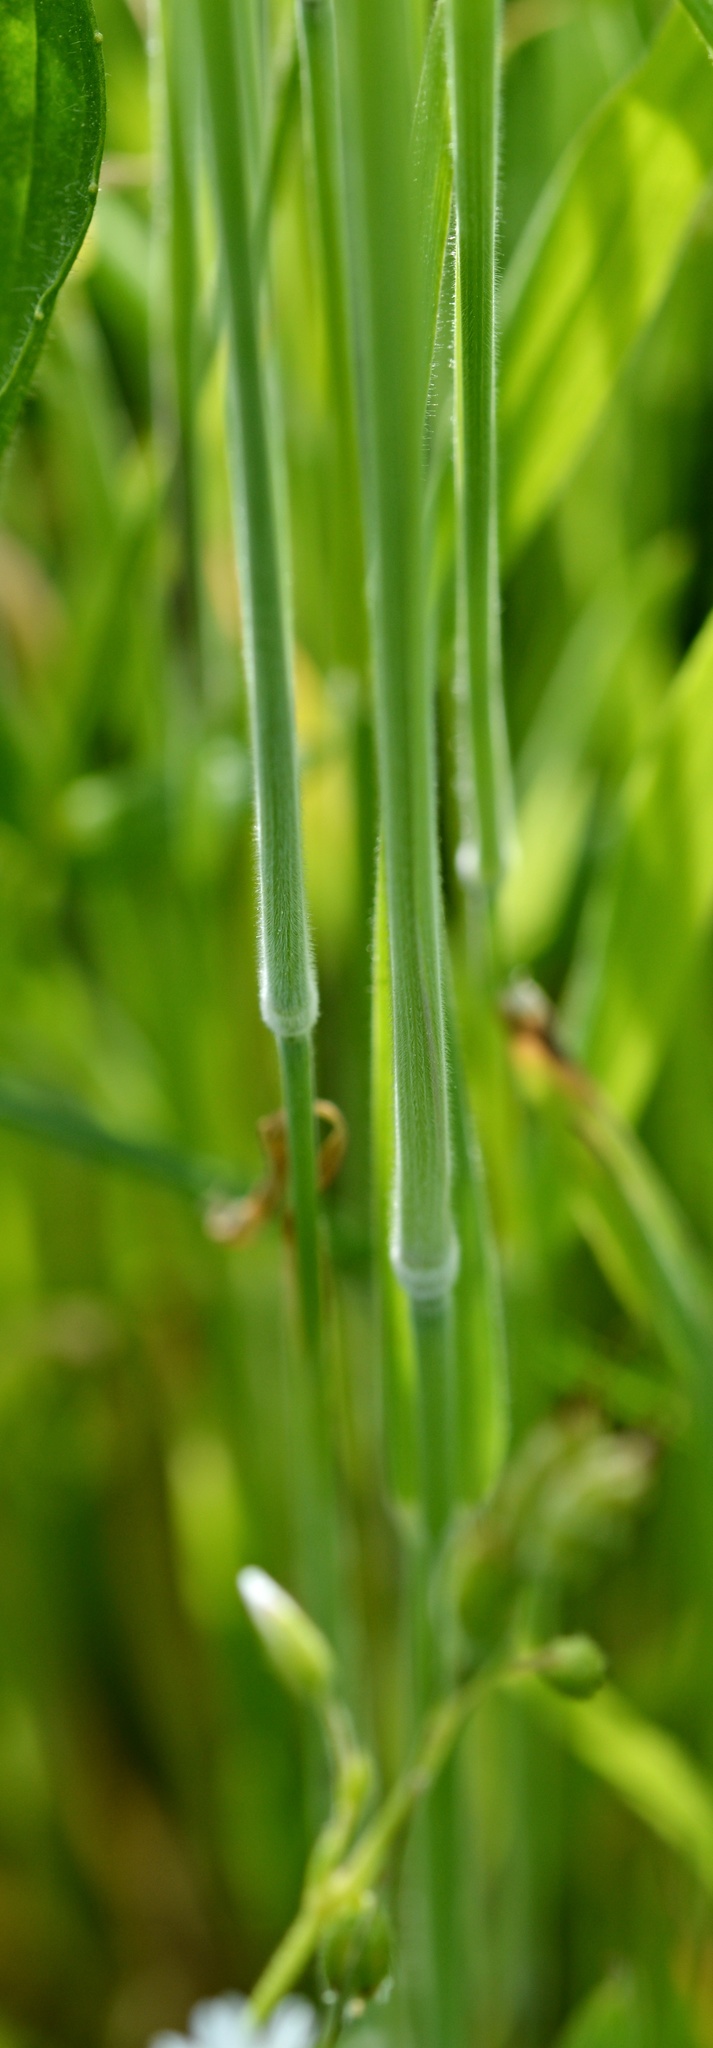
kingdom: Plantae
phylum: Tracheophyta
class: Liliopsida
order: Poales
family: Poaceae
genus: Holcus
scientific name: Holcus lanatus
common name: Yorkshire-fog
